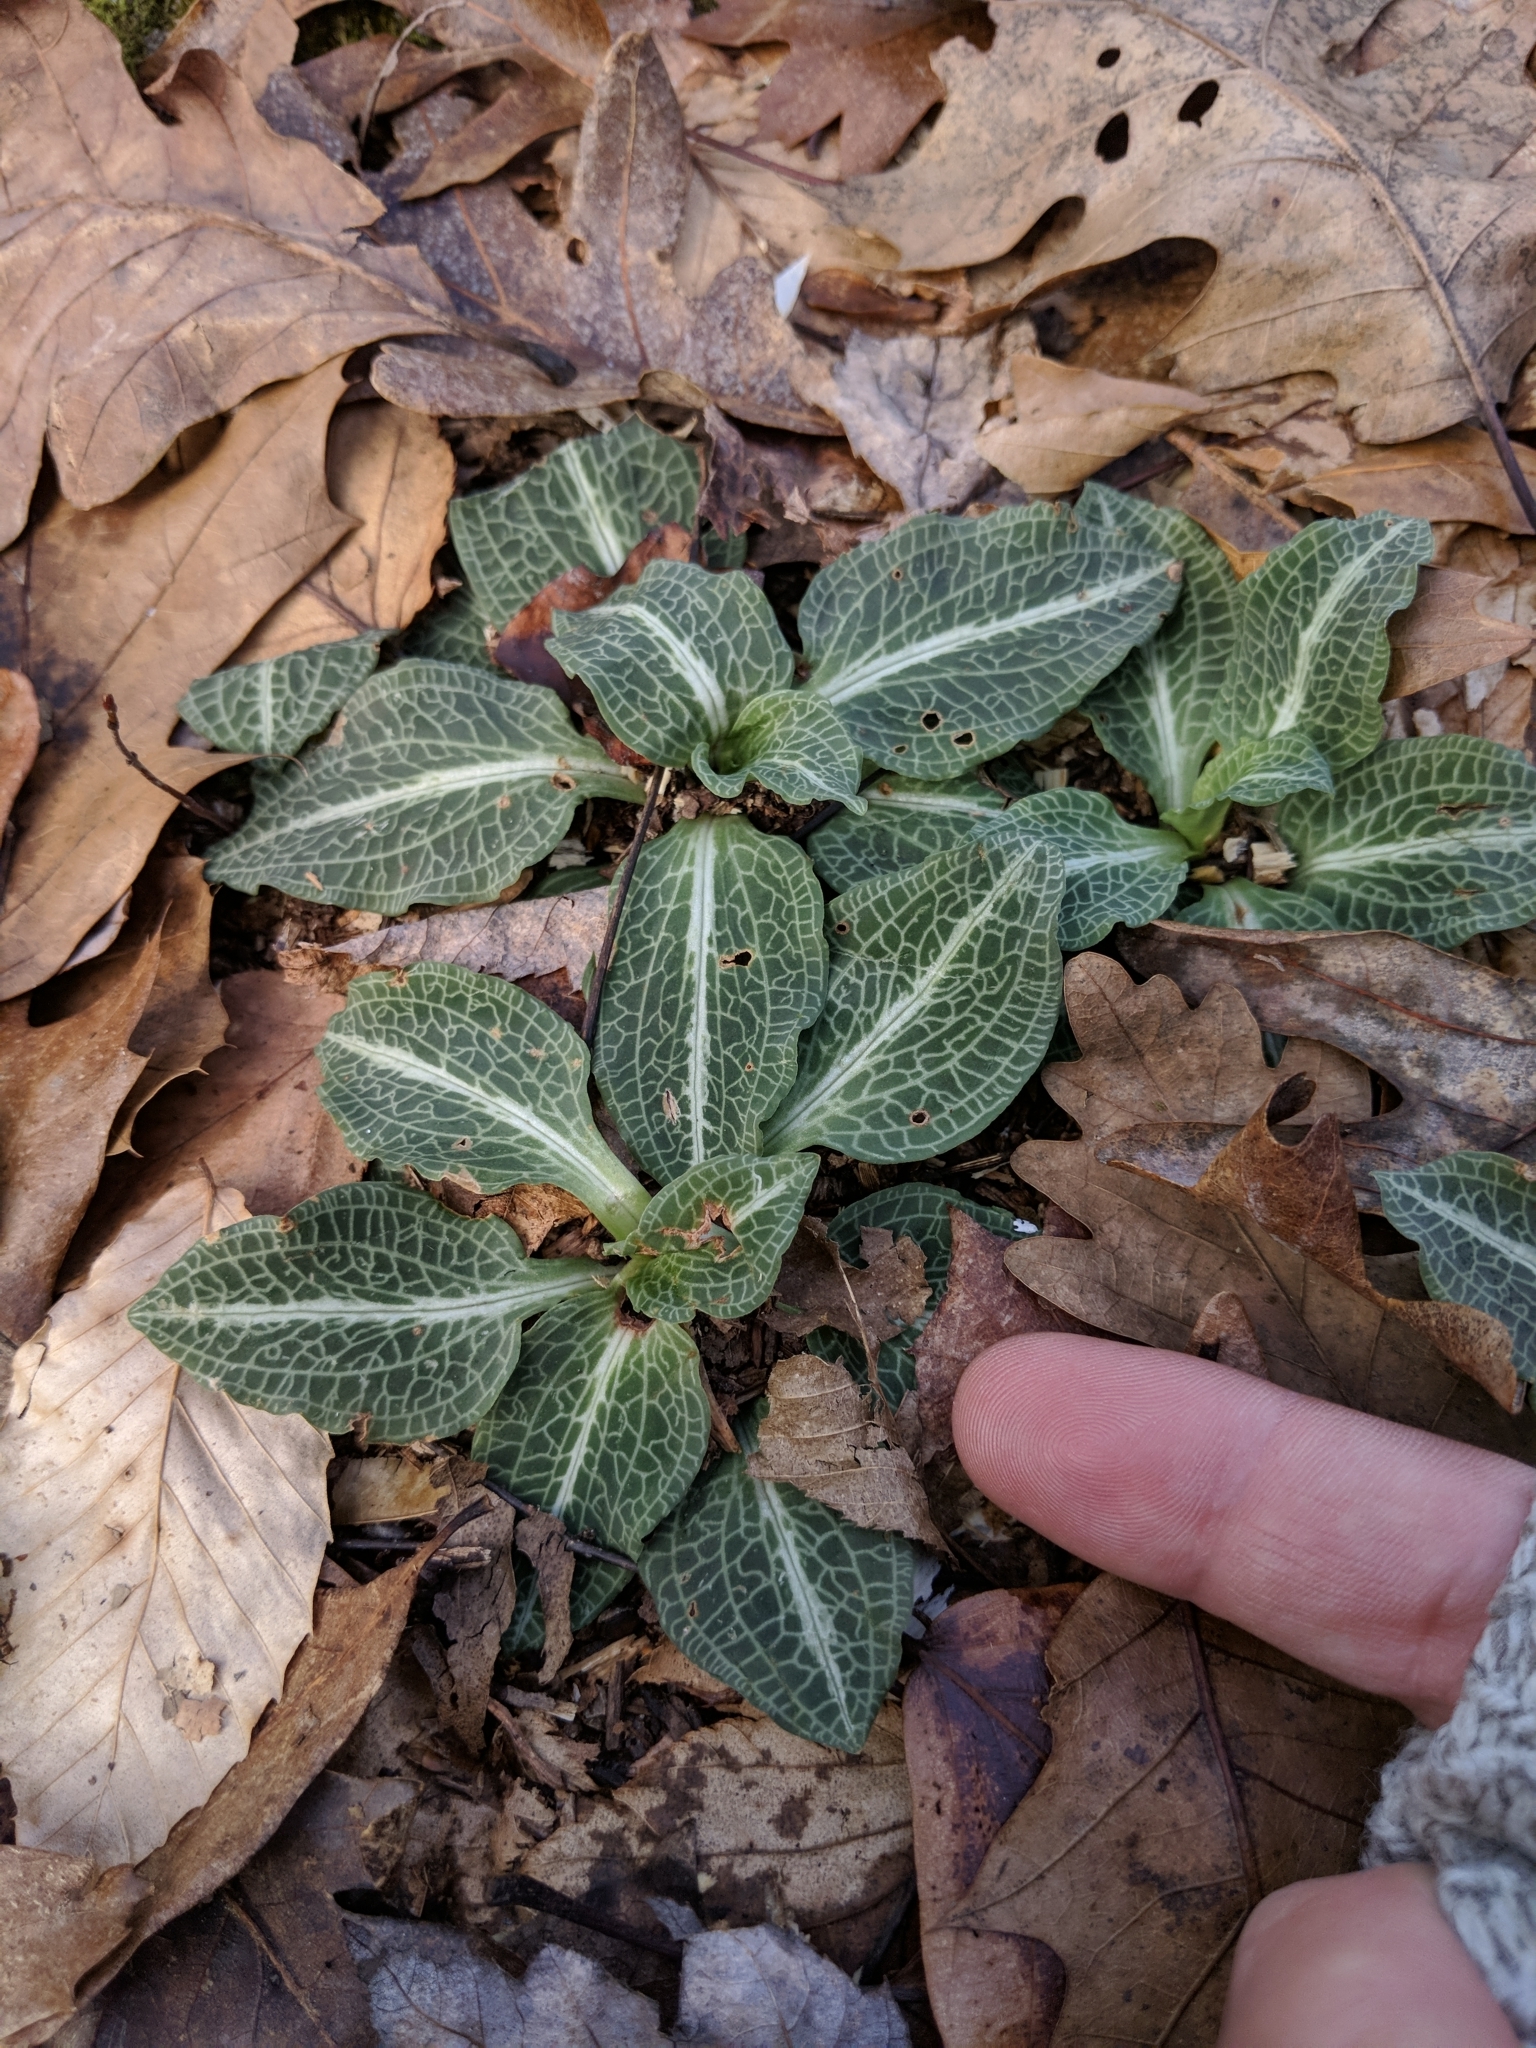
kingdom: Plantae
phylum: Tracheophyta
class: Liliopsida
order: Asparagales
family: Orchidaceae
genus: Goodyera
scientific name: Goodyera pubescens
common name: Downy rattlesnake-plantain
